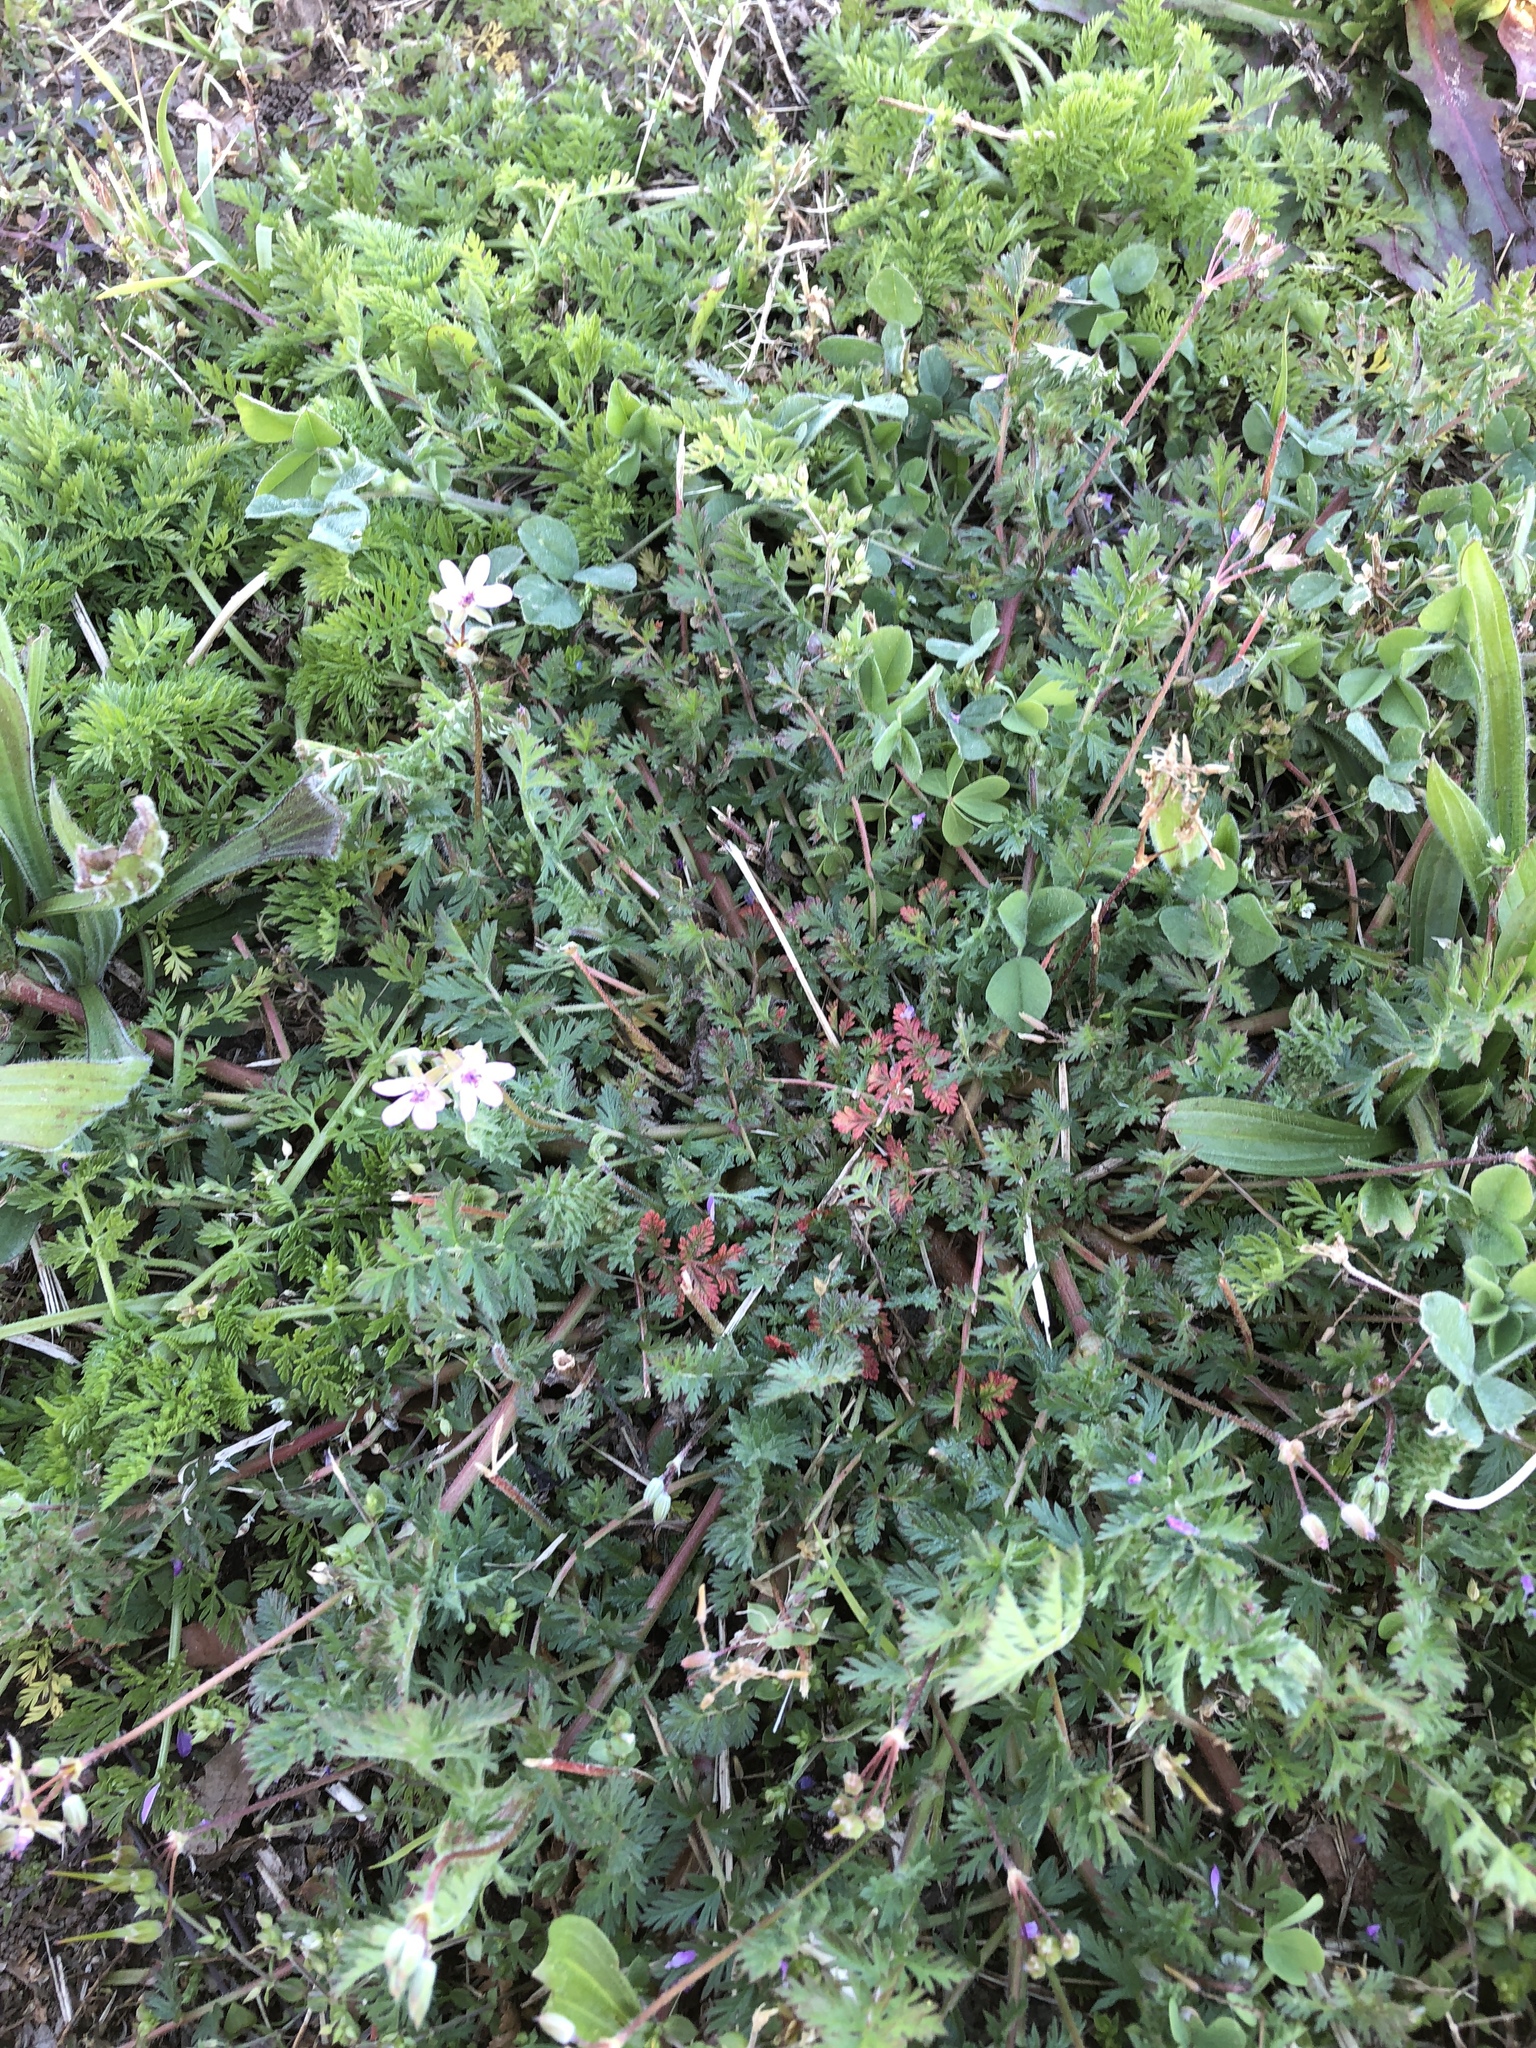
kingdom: Plantae
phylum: Tracheophyta
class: Magnoliopsida
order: Geraniales
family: Geraniaceae
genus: Erodium
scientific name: Erodium cicutarium
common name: Common stork's-bill
